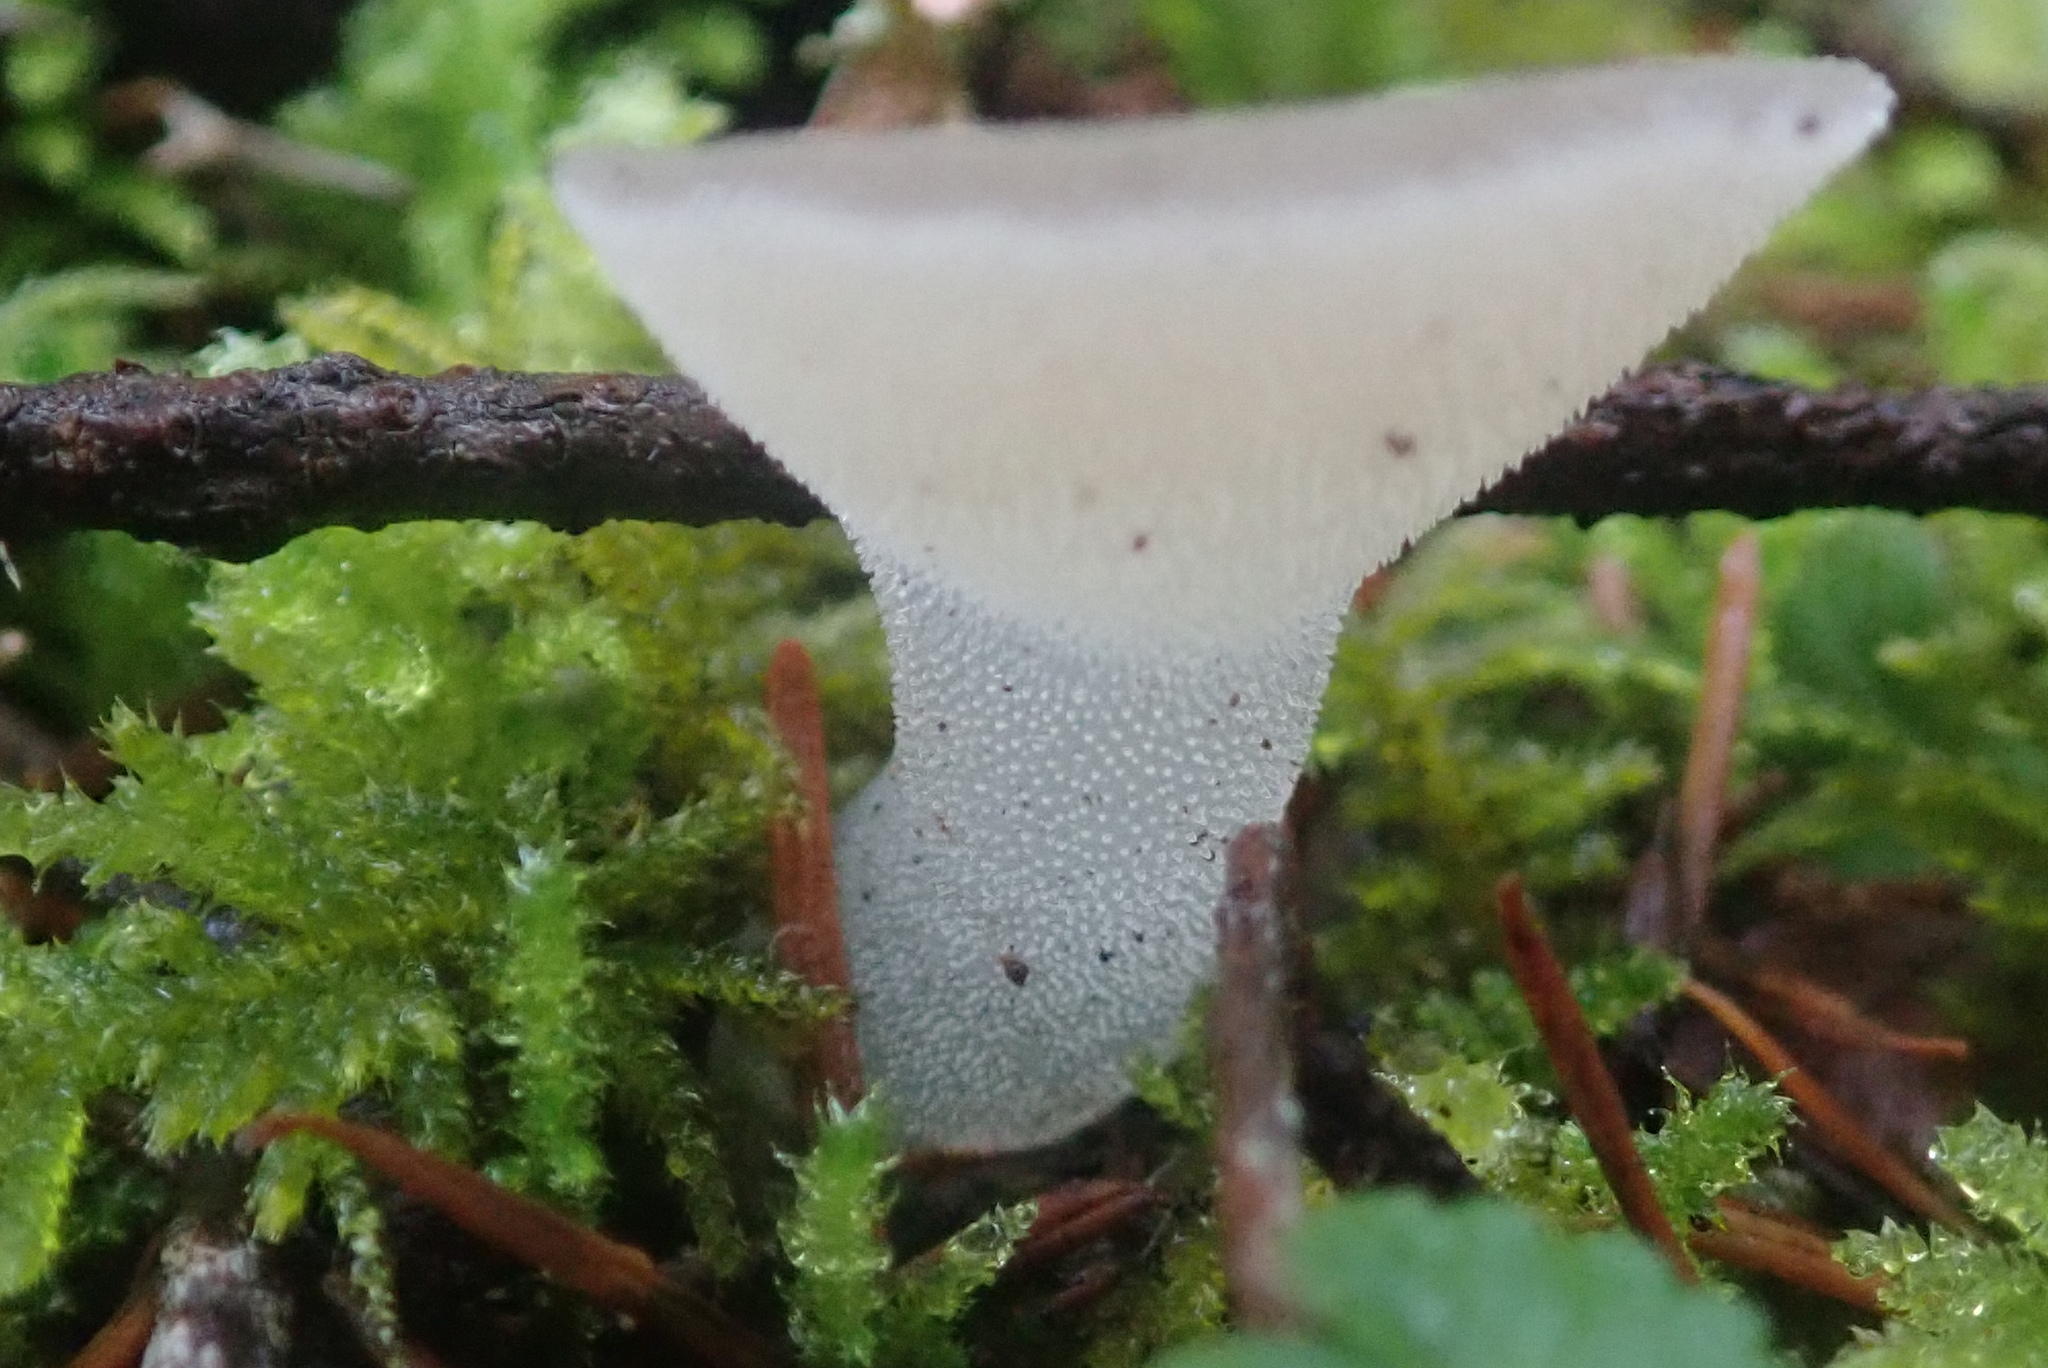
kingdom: Fungi
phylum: Basidiomycota
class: Agaricomycetes
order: Auriculariales
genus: Pseudohydnum
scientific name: Pseudohydnum gelatinosum
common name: Jelly tongue
